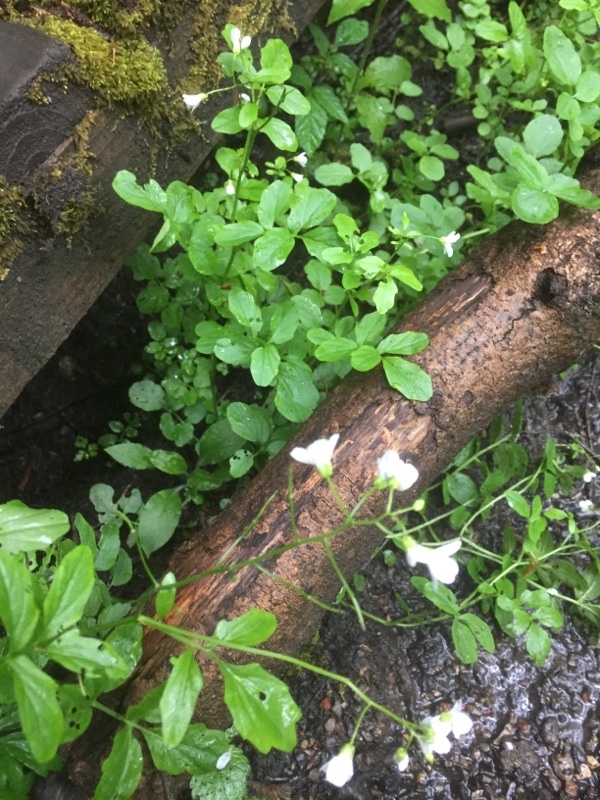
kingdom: Plantae
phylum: Tracheophyta
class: Magnoliopsida
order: Brassicales
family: Brassicaceae
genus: Cardamine
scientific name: Cardamine amara
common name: Large bitter-cress
